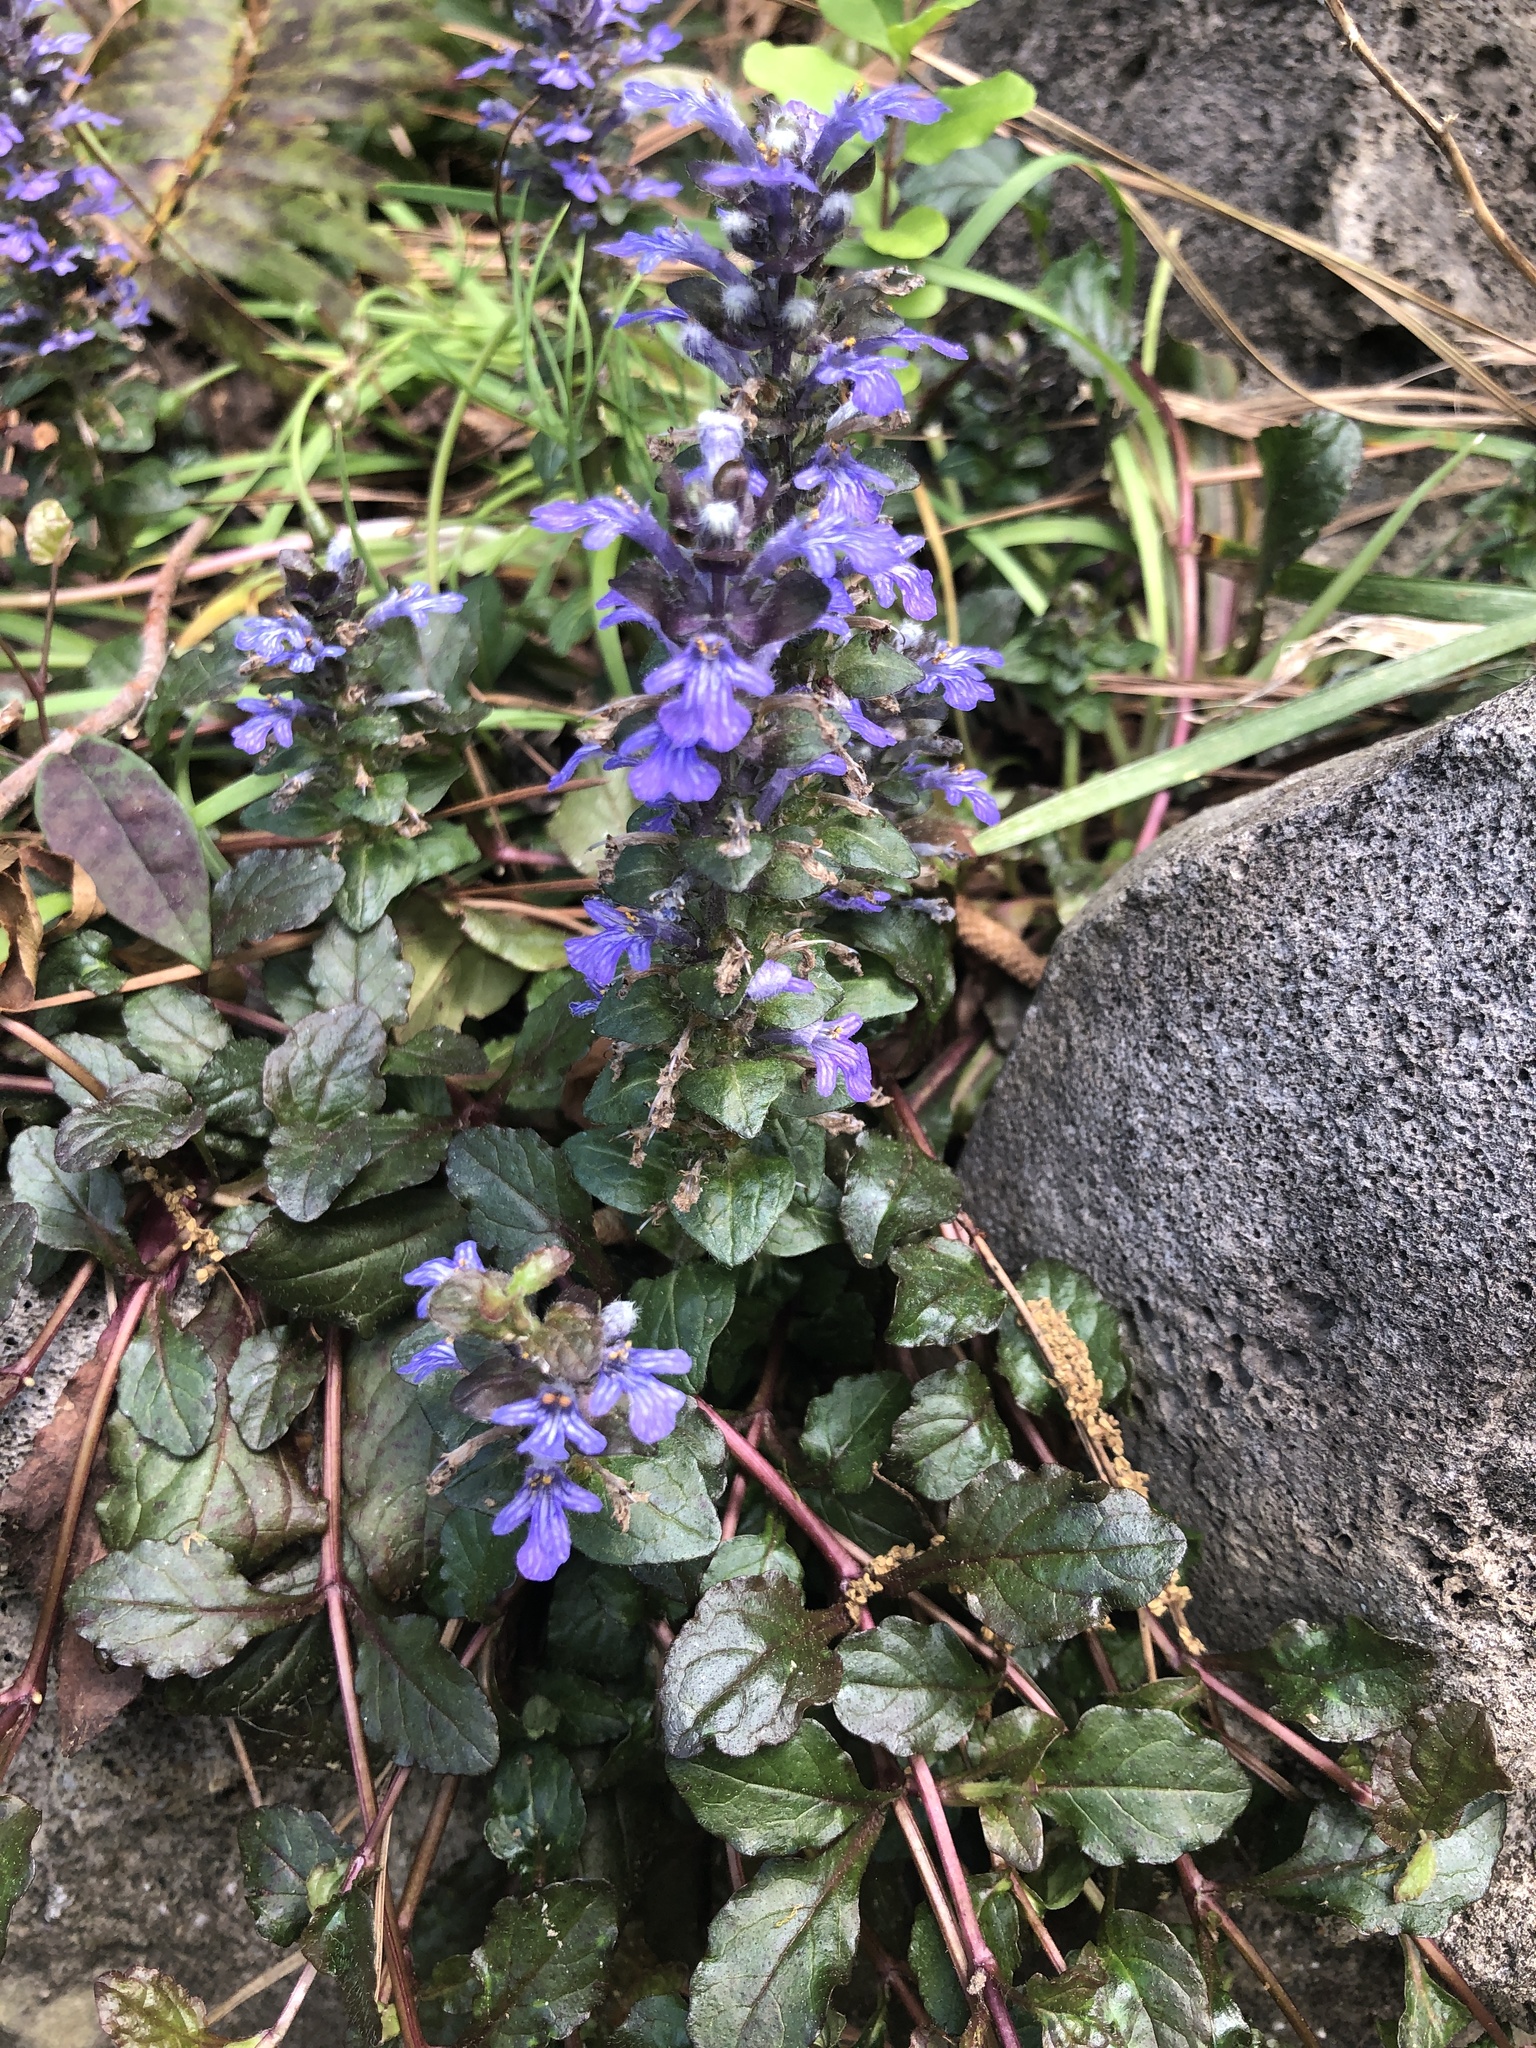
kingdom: Plantae
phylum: Tracheophyta
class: Magnoliopsida
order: Lamiales
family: Lamiaceae
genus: Ajuga
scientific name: Ajuga reptans
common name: Bugle
